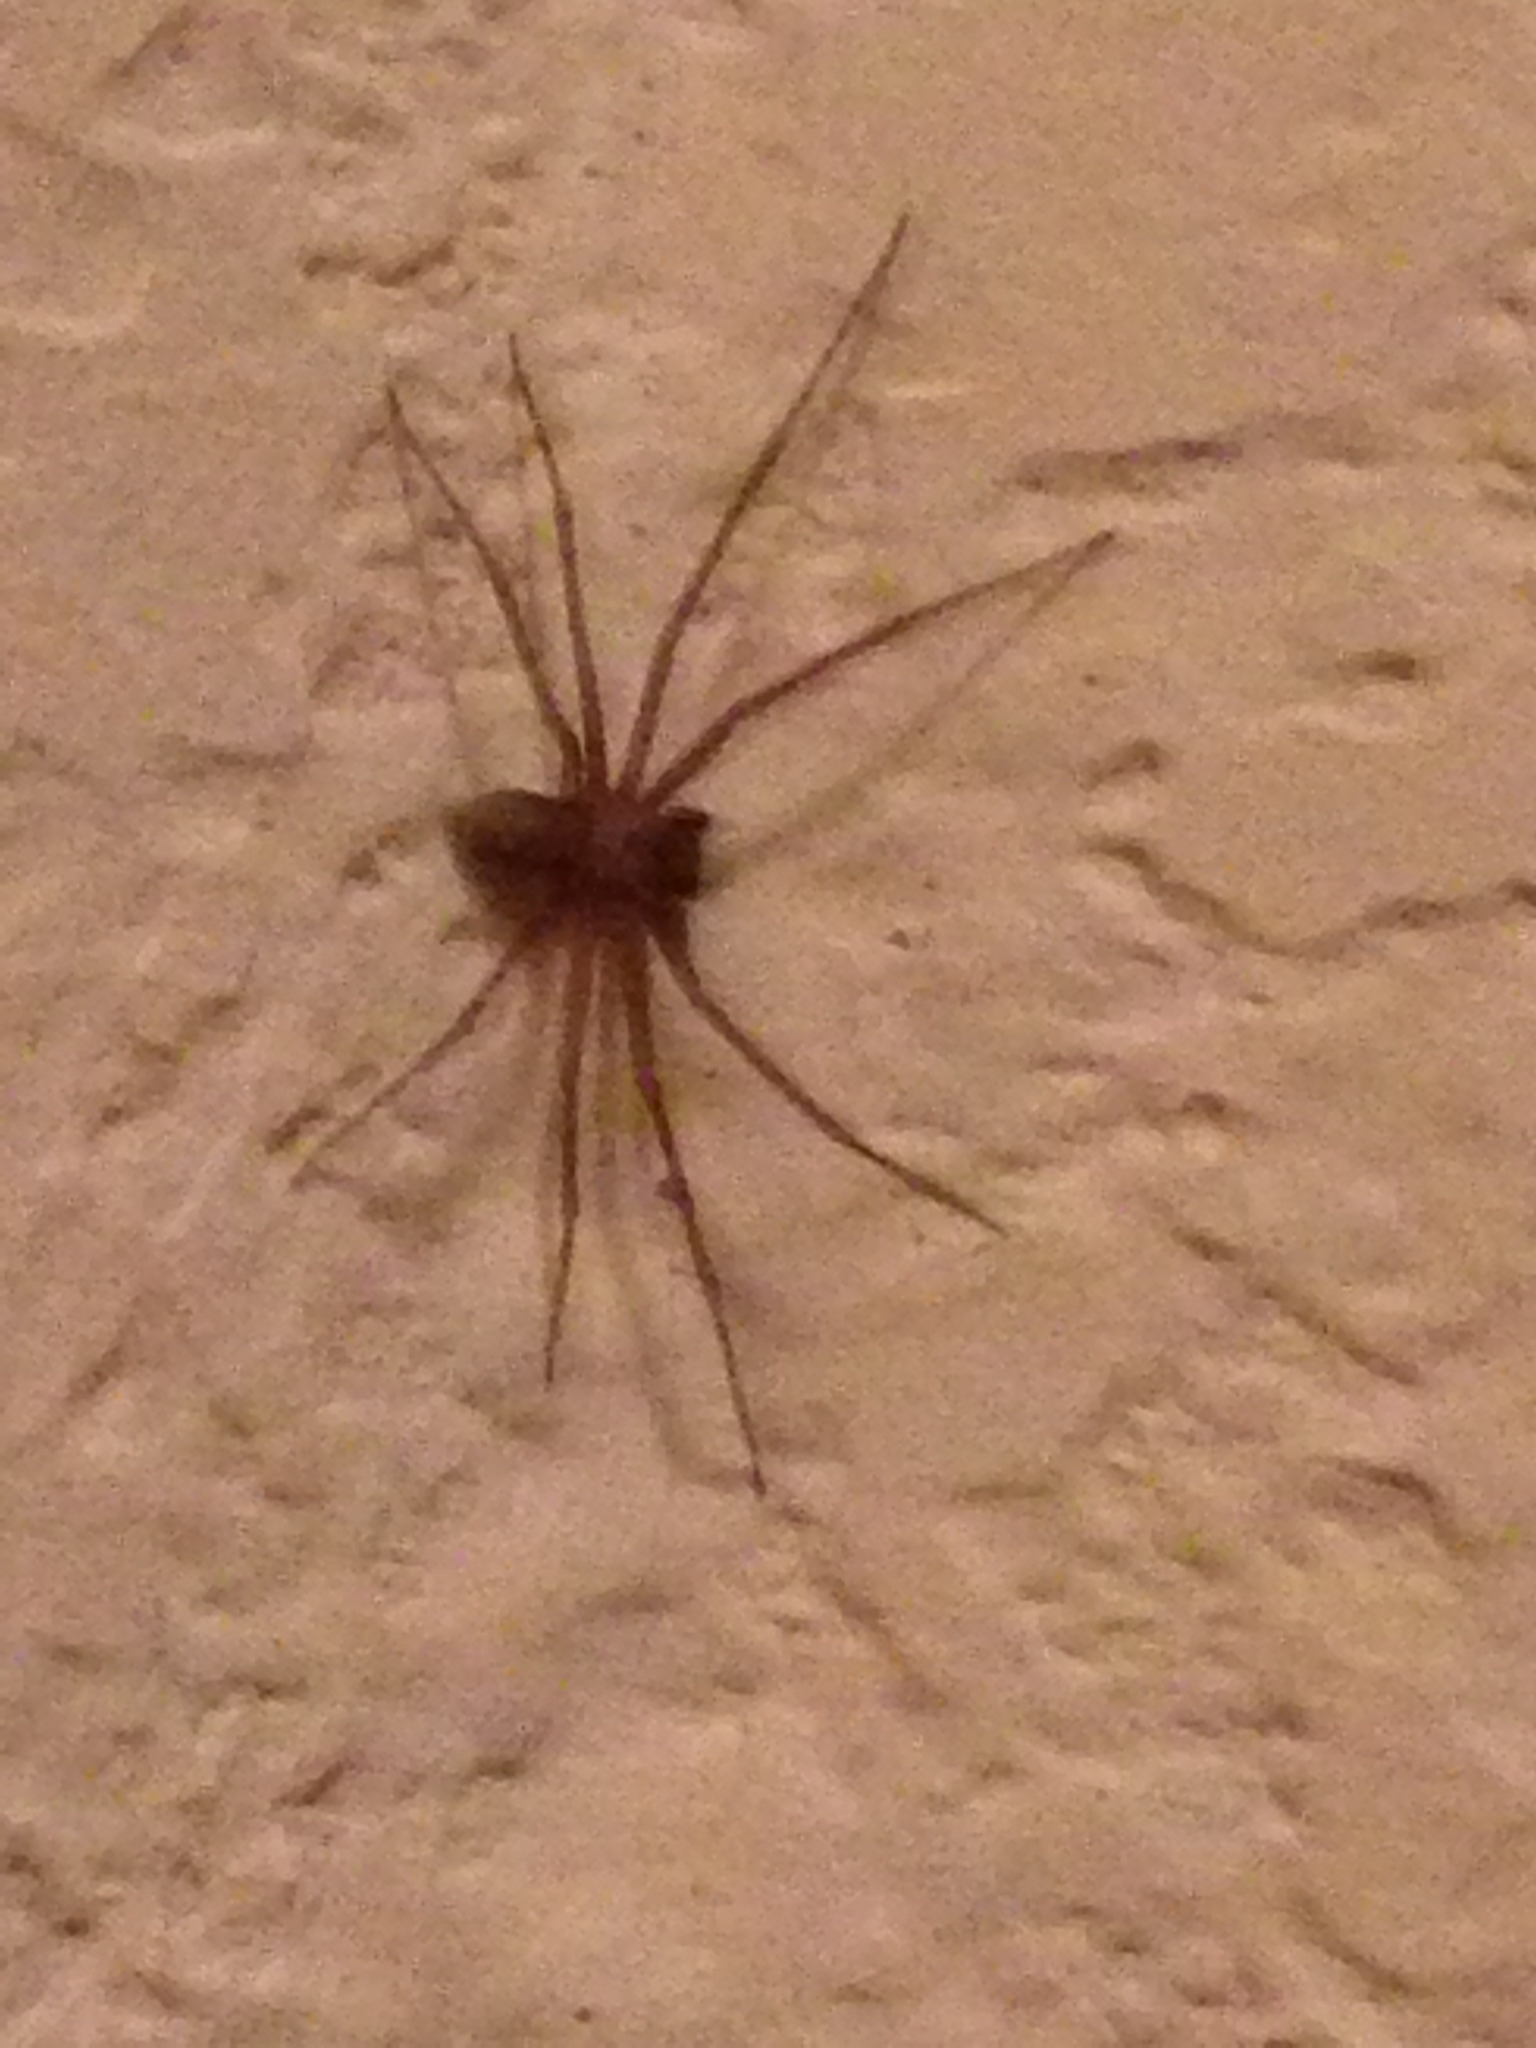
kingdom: Animalia
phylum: Arthropoda
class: Arachnida
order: Araneae
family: Sicariidae
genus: Loxosceles
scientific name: Loxosceles reclusa
